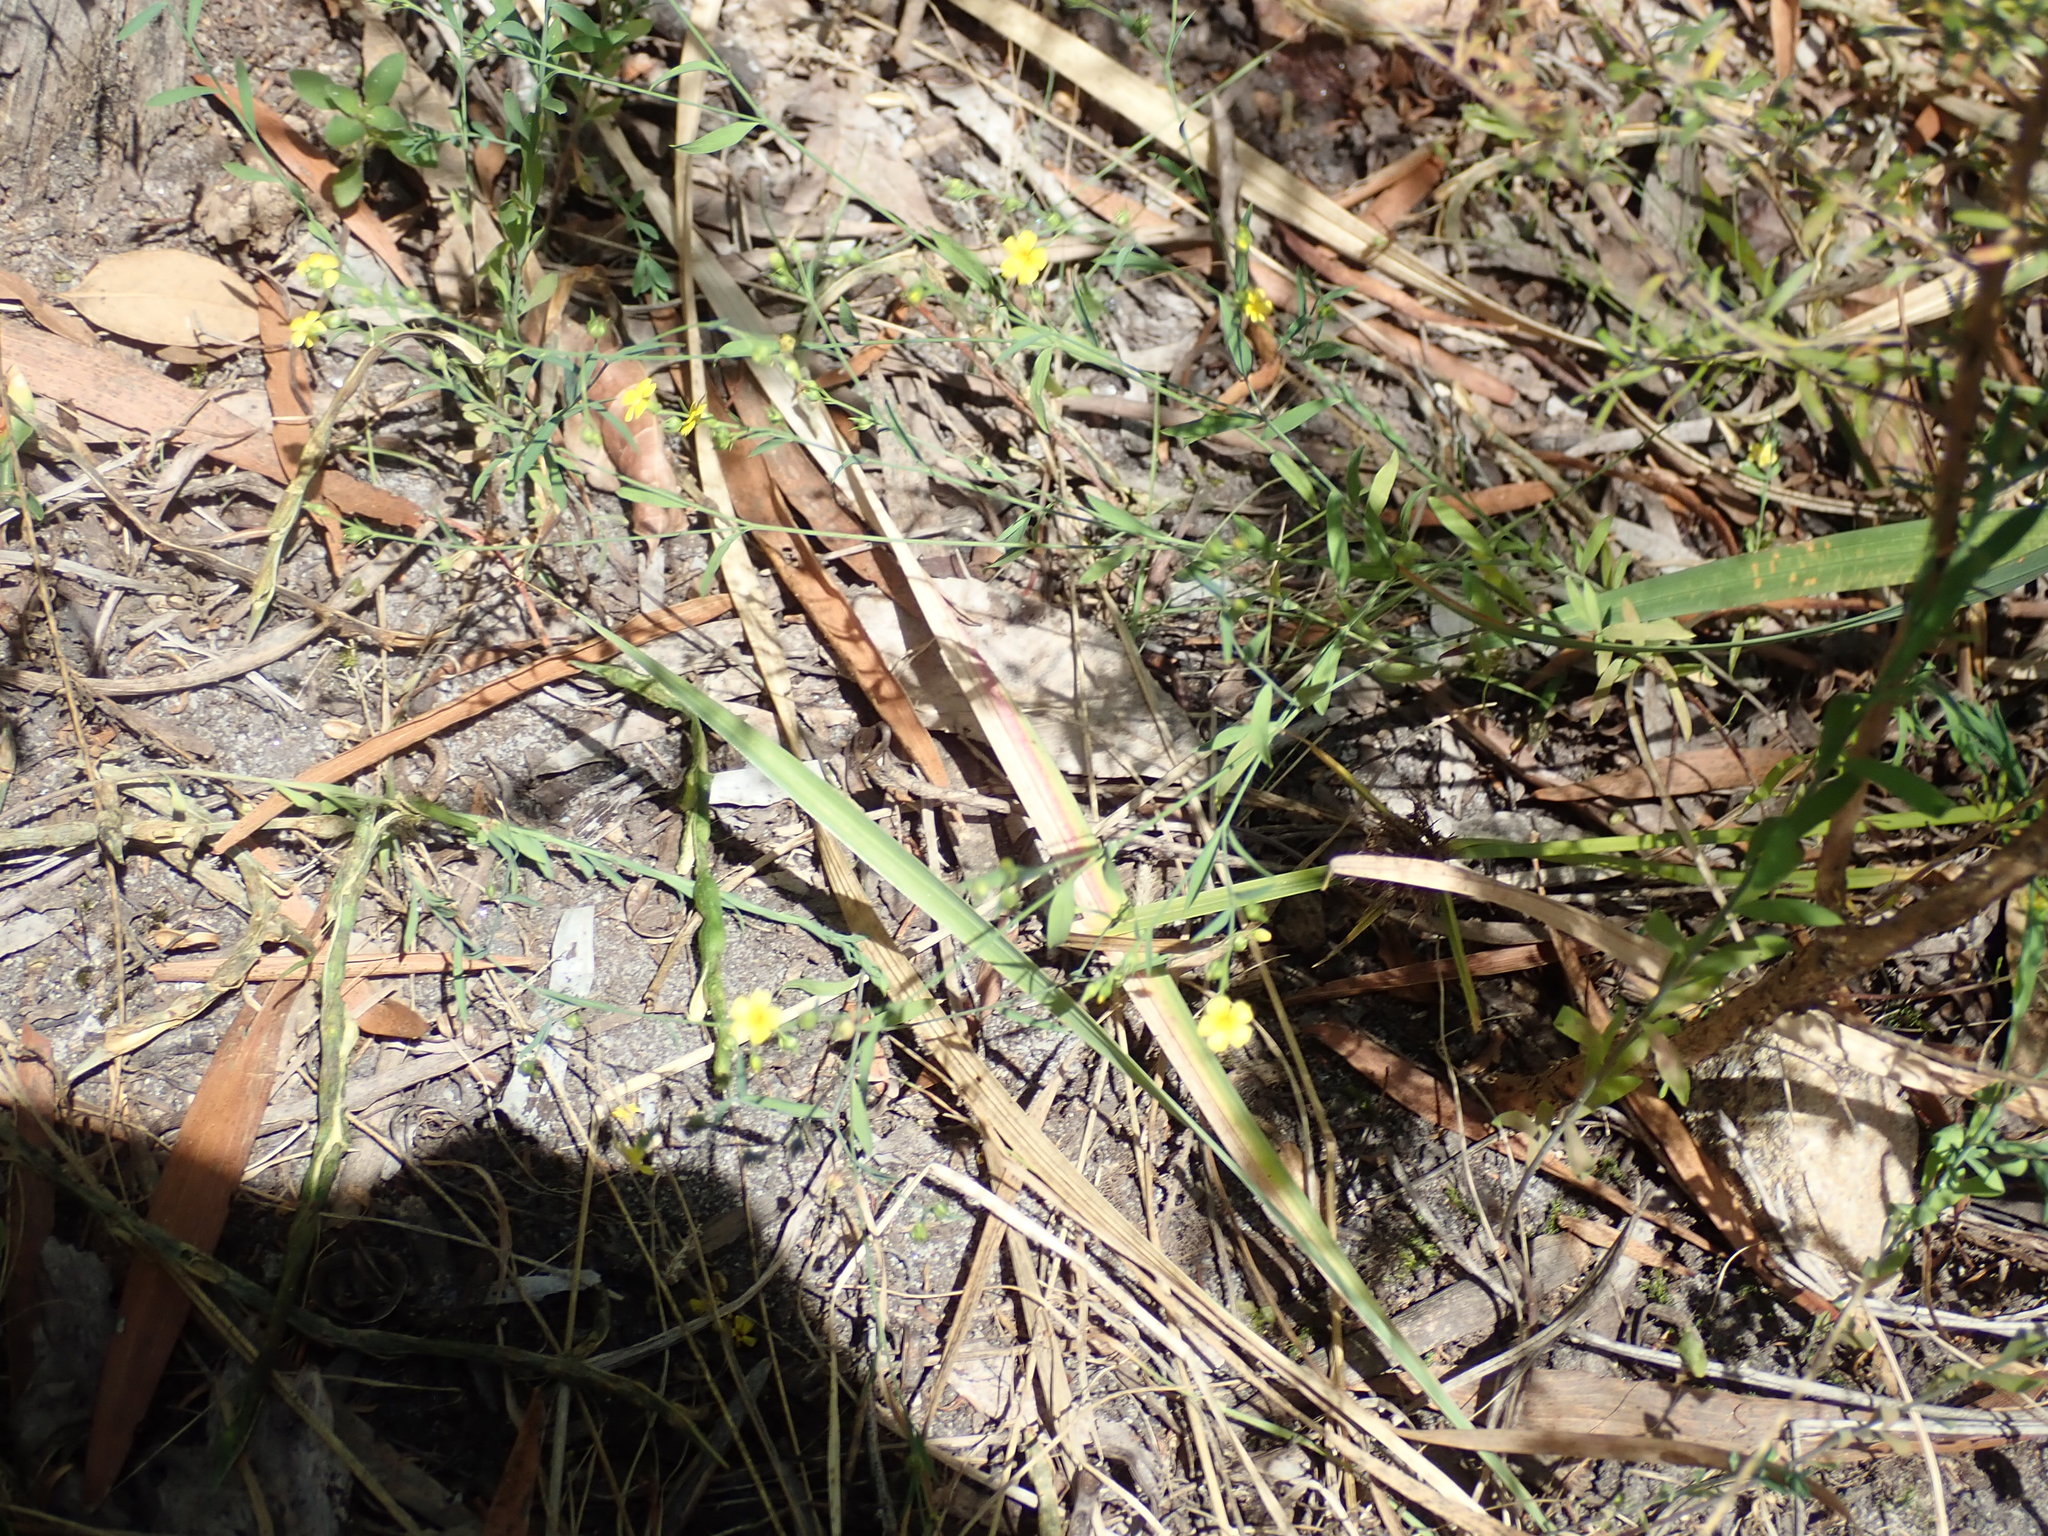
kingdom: Plantae
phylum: Tracheophyta
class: Magnoliopsida
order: Malpighiales
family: Linaceae
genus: Linum
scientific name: Linum trigynum
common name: French flax
